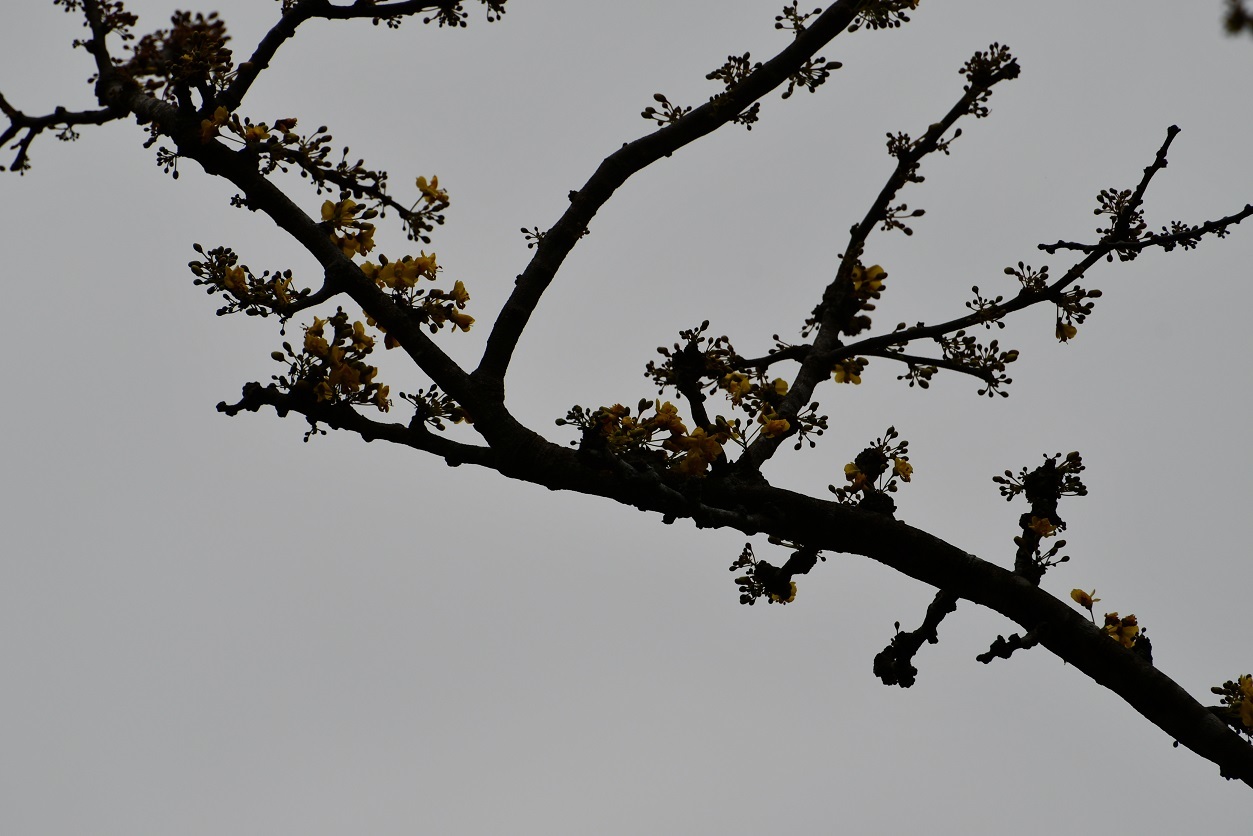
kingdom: Plantae
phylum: Tracheophyta
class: Magnoliopsida
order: Fabales
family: Fabaceae
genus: Haematoxylum
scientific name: Haematoxylum brasiletto
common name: Peachwood
